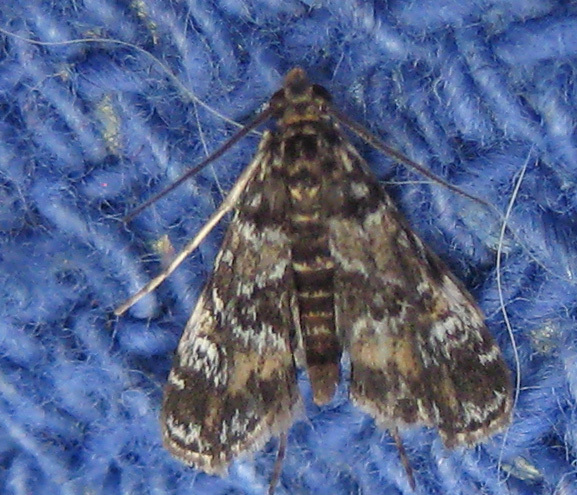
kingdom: Animalia
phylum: Arthropoda
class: Insecta
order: Lepidoptera
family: Crambidae
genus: Elophila
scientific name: Elophila obliteralis
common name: Waterlily leafcutter moth
